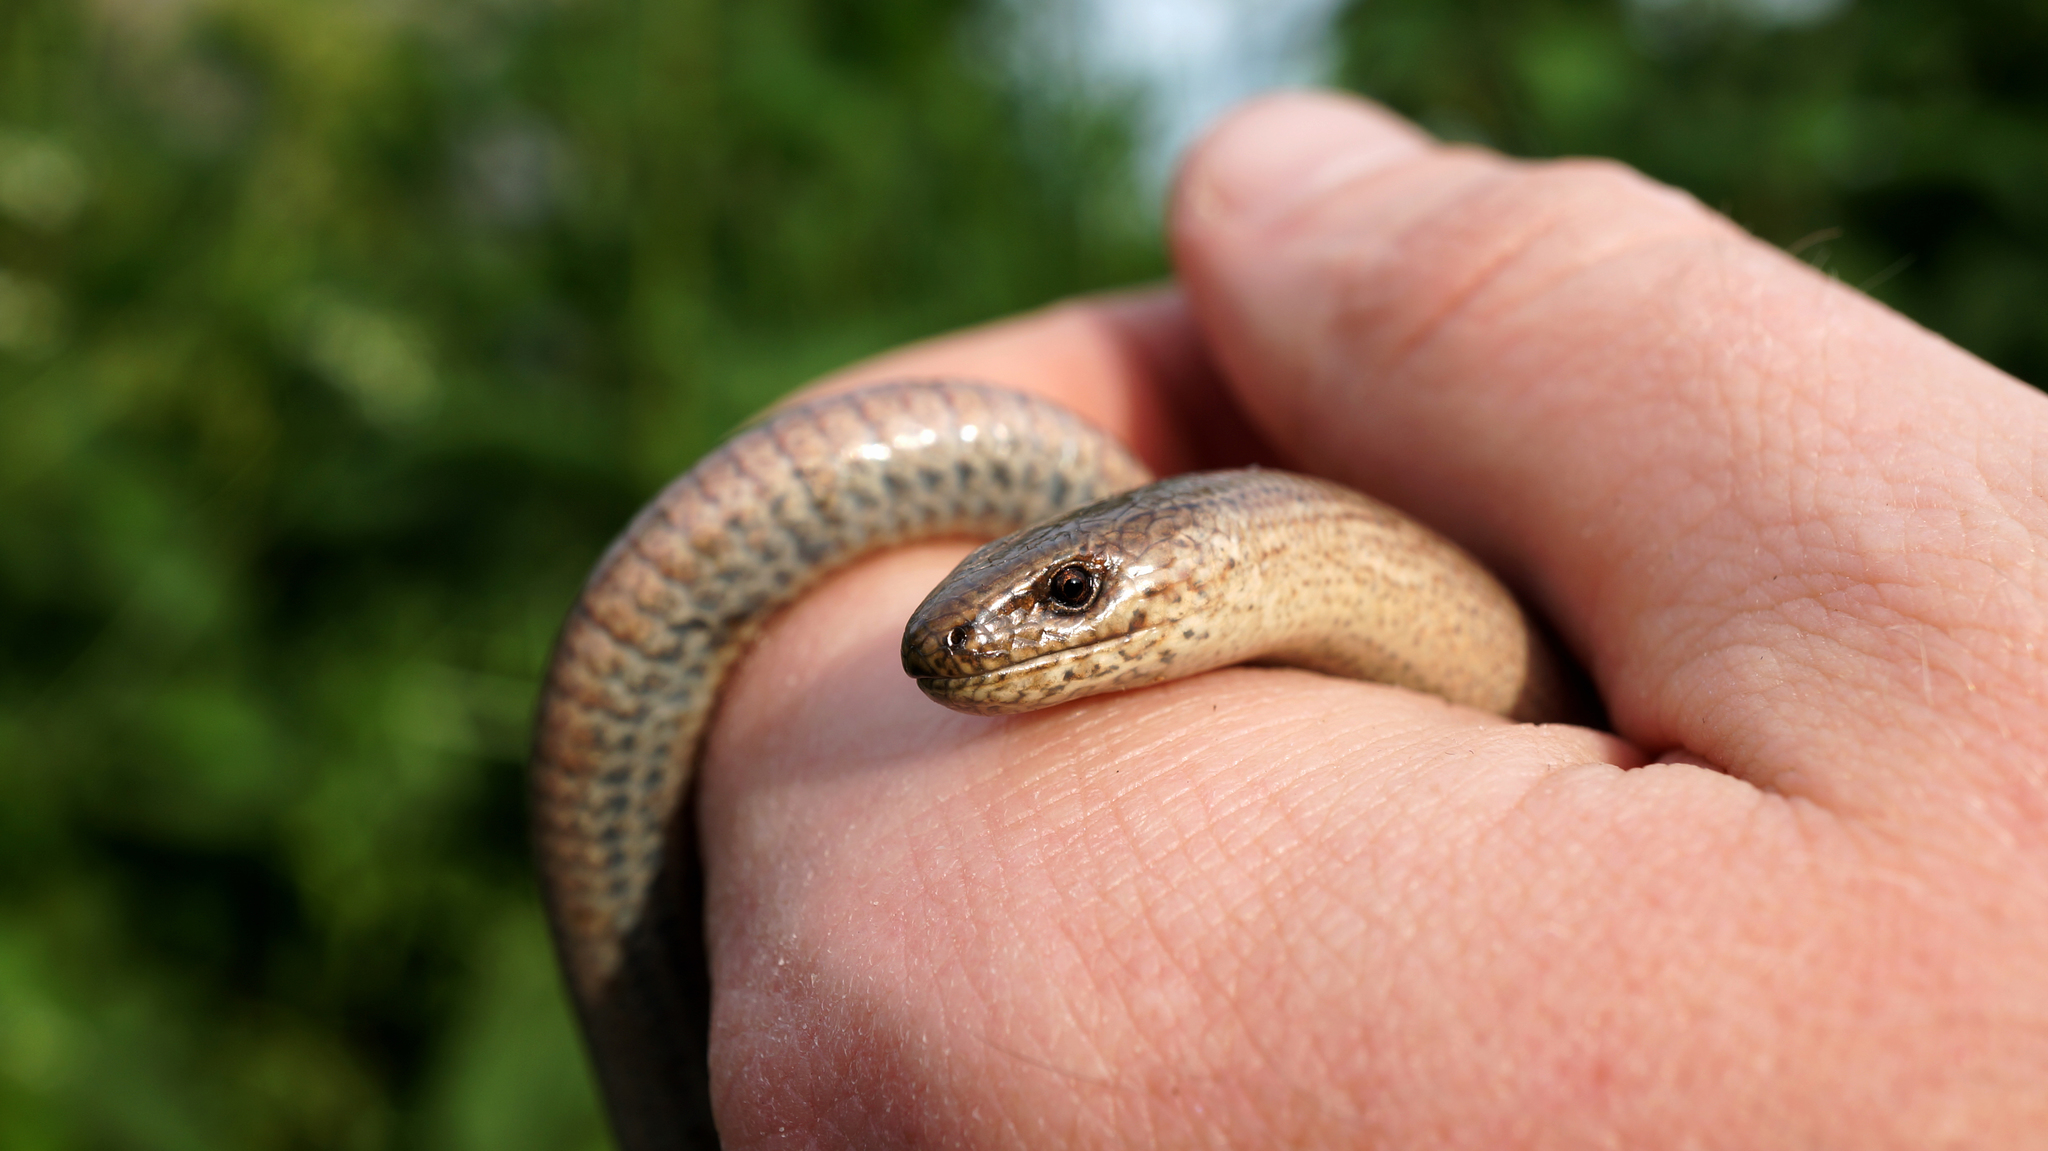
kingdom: Animalia
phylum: Chordata
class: Squamata
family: Anguidae
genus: Anguis
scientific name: Anguis fragilis
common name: Slow worm
